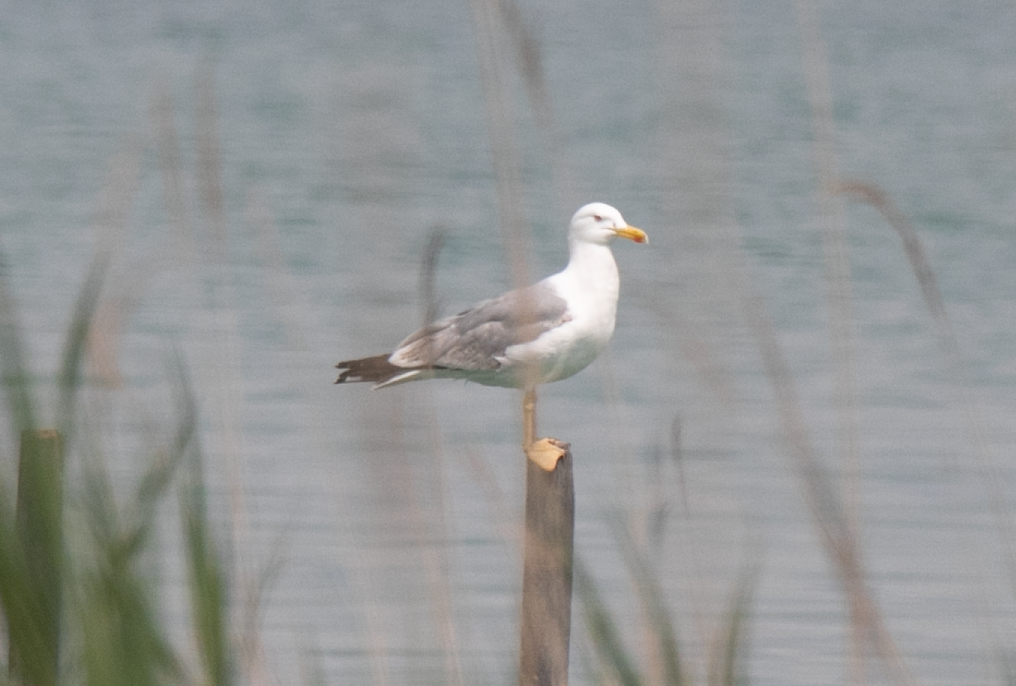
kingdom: Animalia
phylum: Chordata
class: Aves
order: Charadriiformes
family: Laridae
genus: Larus
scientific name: Larus michahellis
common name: Yellow-legged gull
